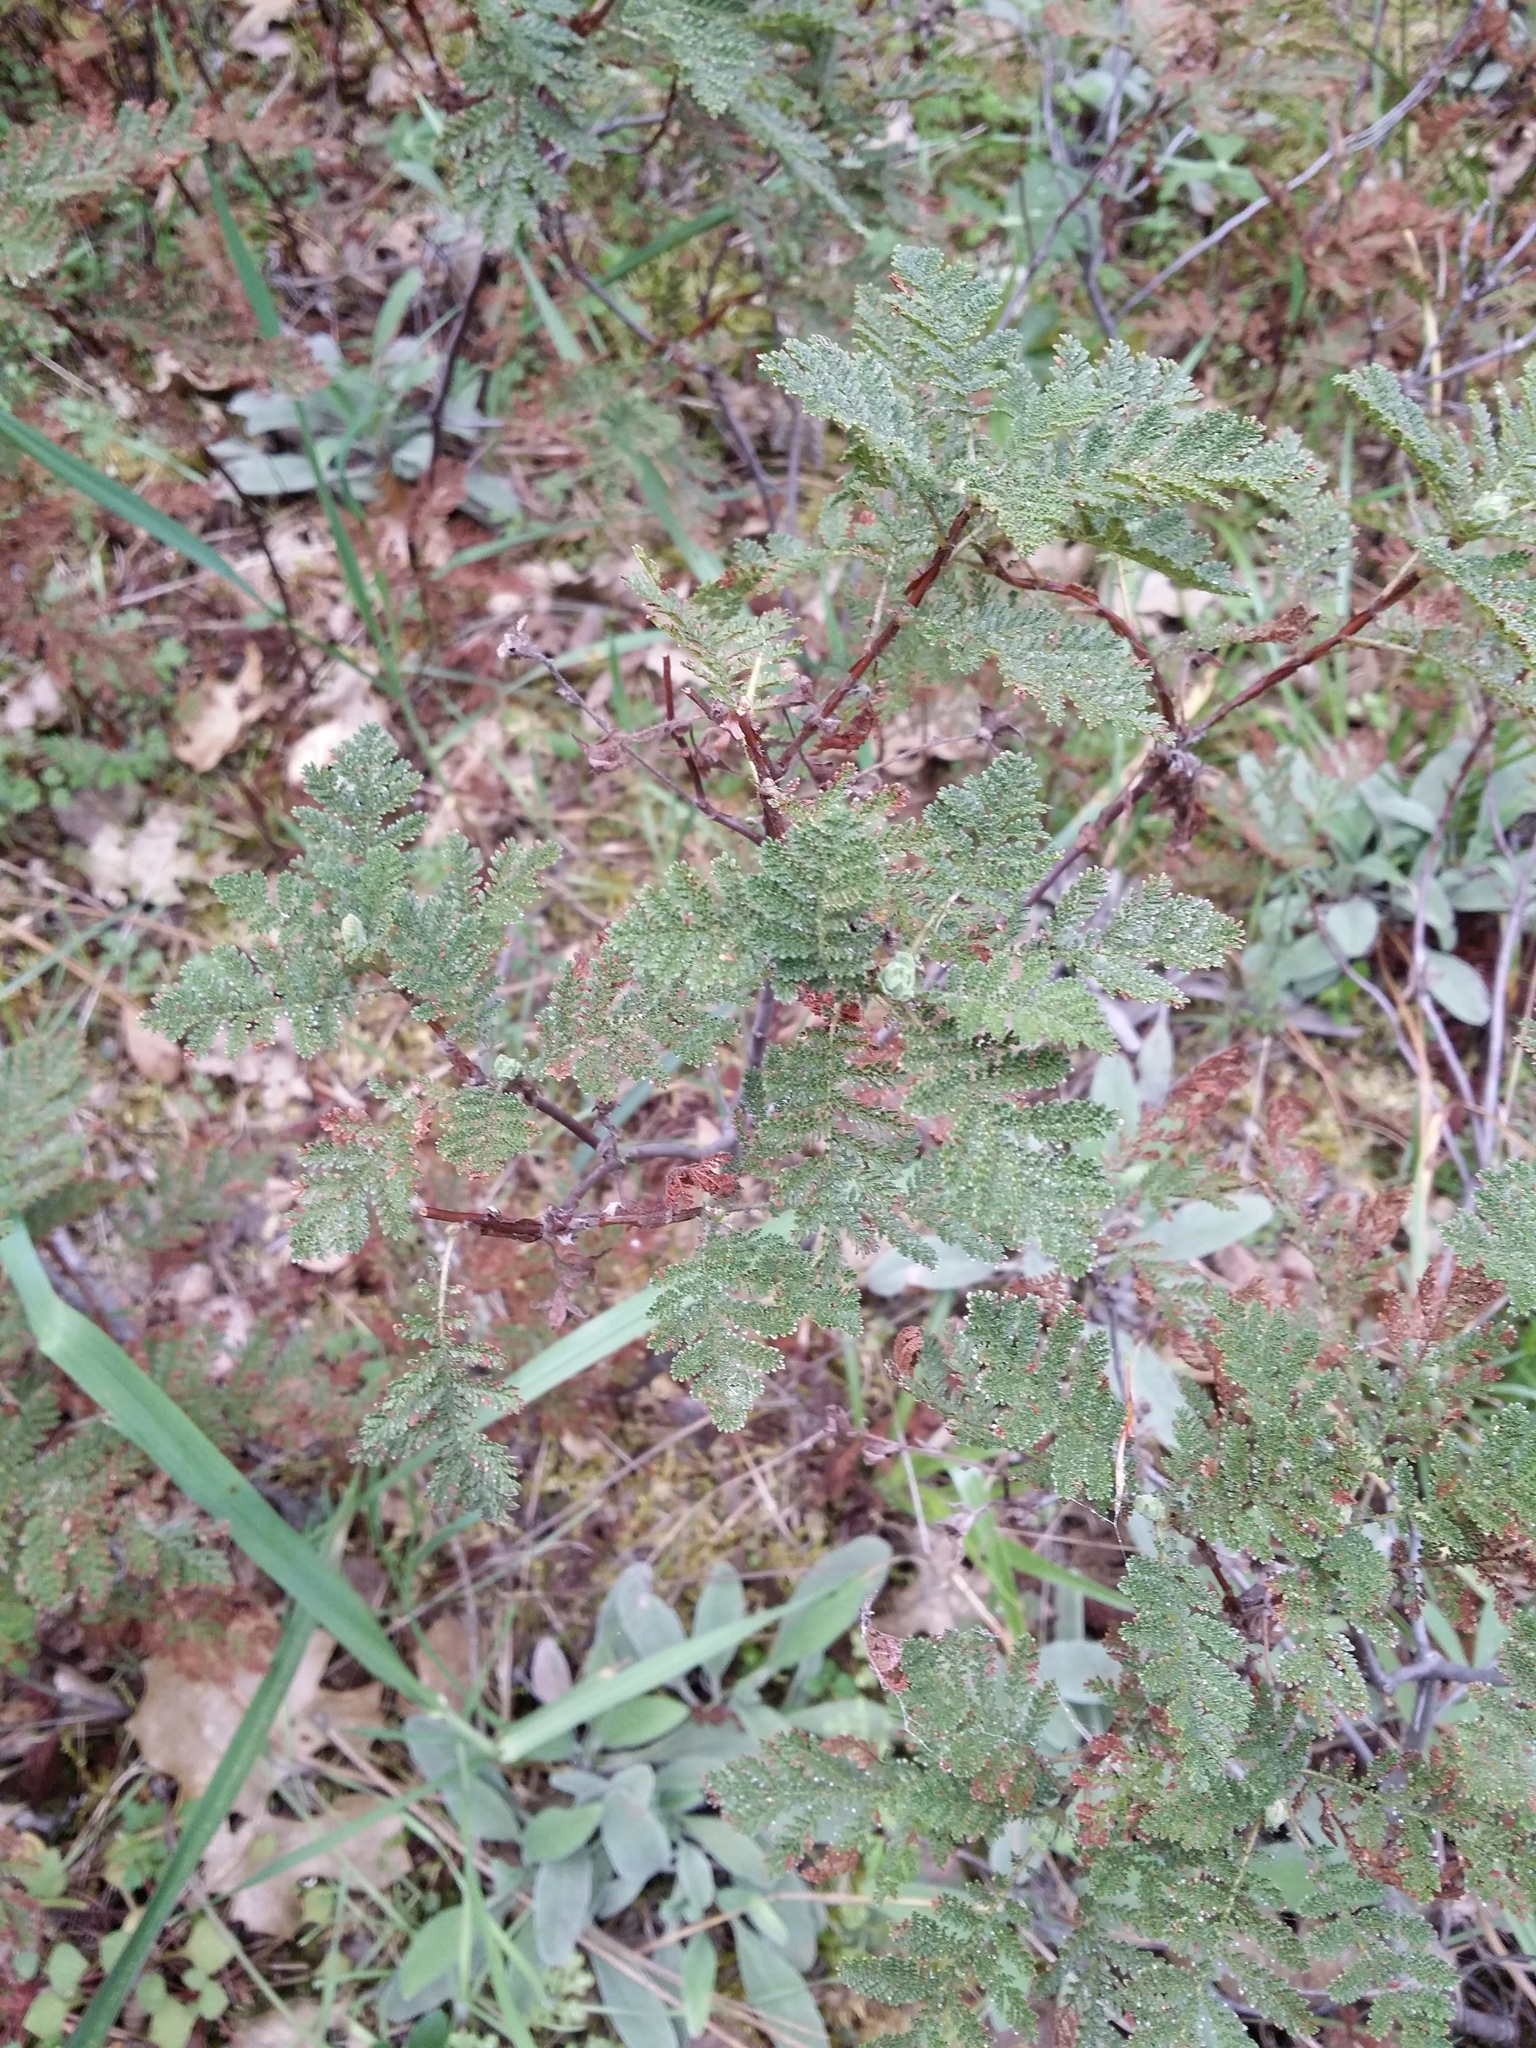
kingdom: Plantae
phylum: Tracheophyta
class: Magnoliopsida
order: Rosales
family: Rosaceae
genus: Chamaebatia
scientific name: Chamaebatia foliolosa
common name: Mountain misery
